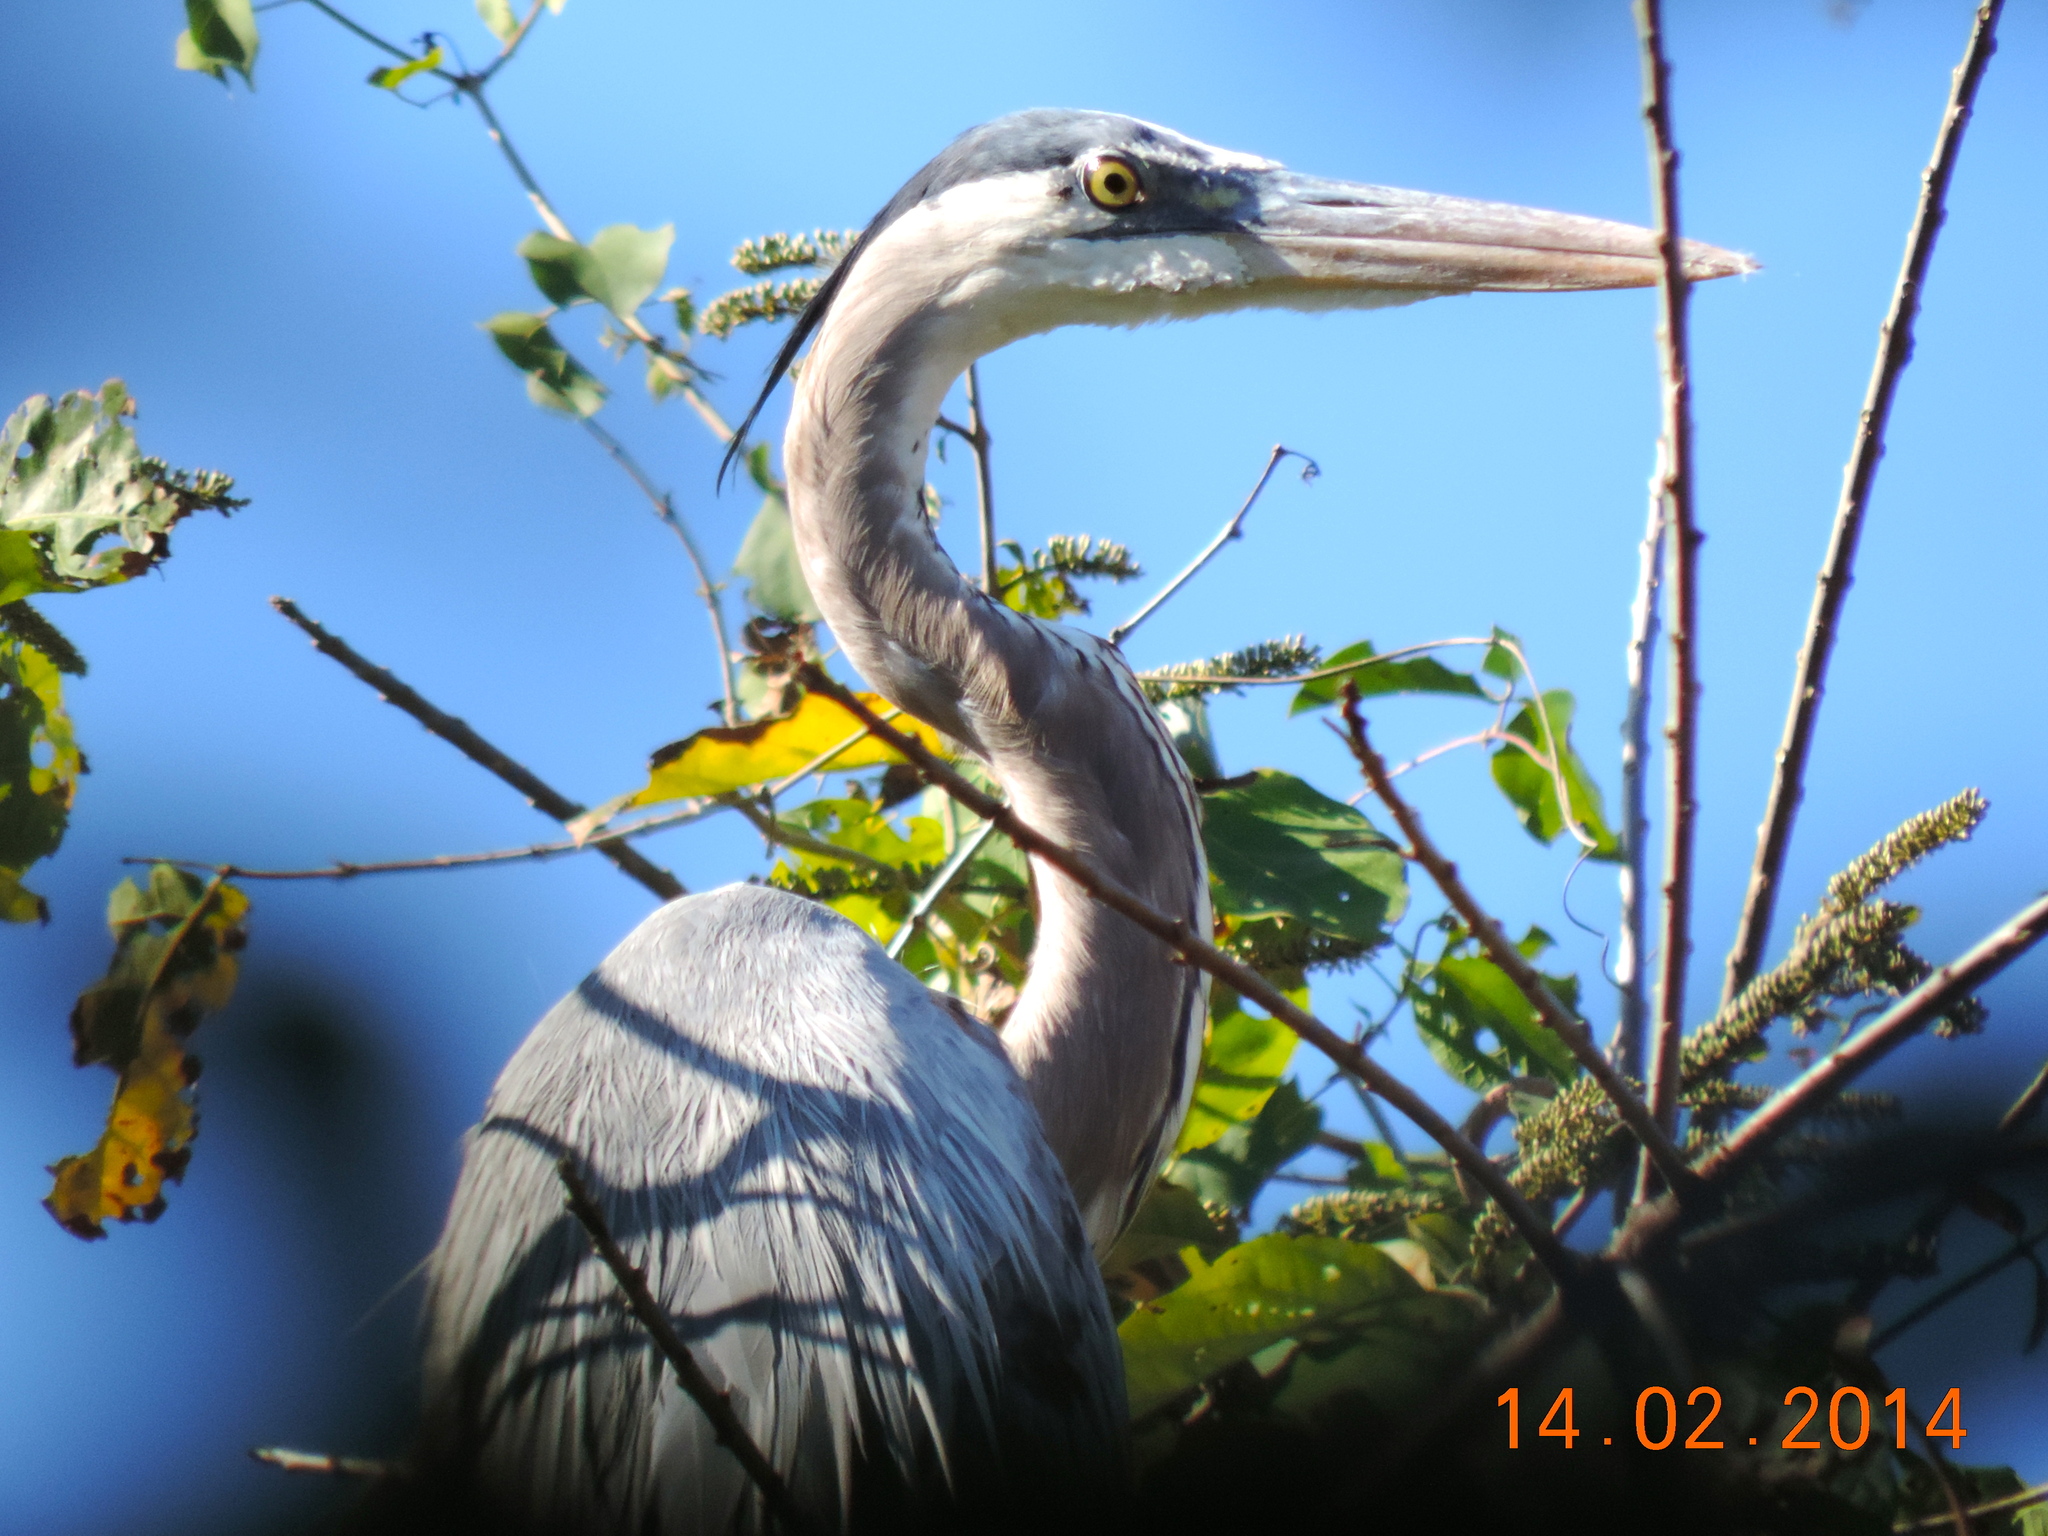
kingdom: Animalia
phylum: Chordata
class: Aves
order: Pelecaniformes
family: Ardeidae
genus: Ardea
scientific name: Ardea herodias
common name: Great blue heron
